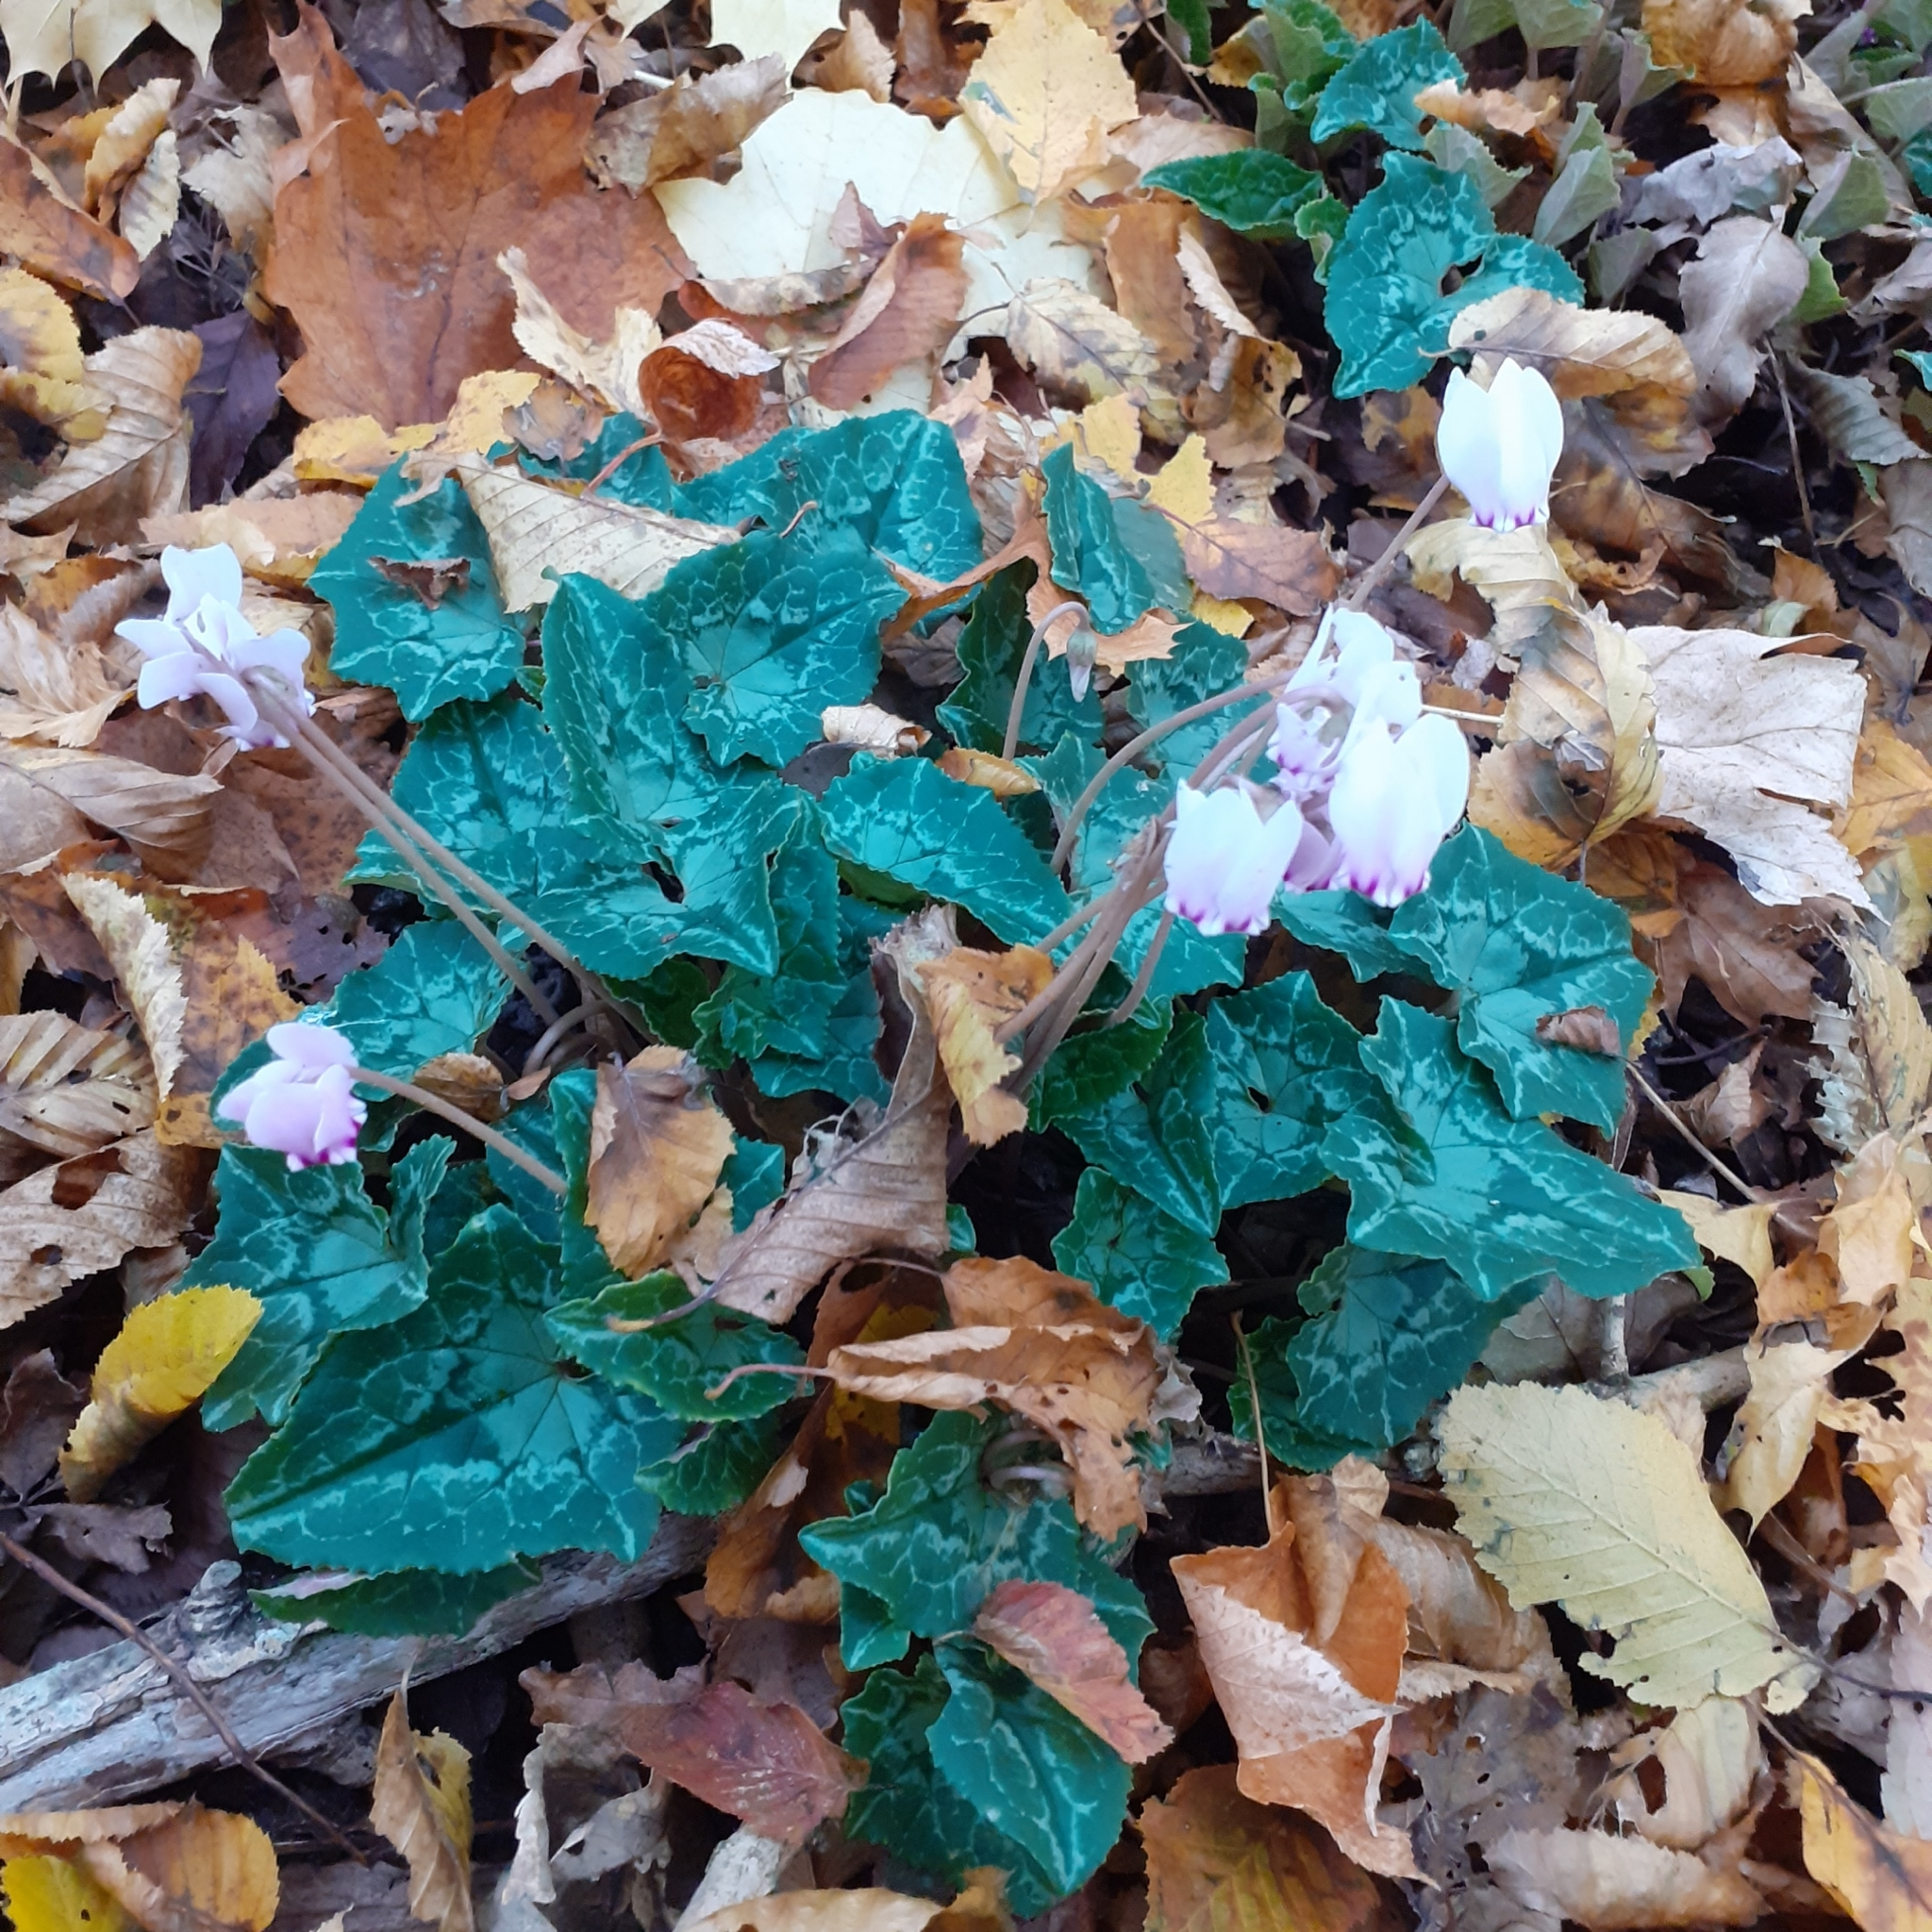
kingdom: Plantae
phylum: Tracheophyta
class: Magnoliopsida
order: Ericales
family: Primulaceae
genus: Cyclamen
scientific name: Cyclamen hederifolium
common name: Sowbread
